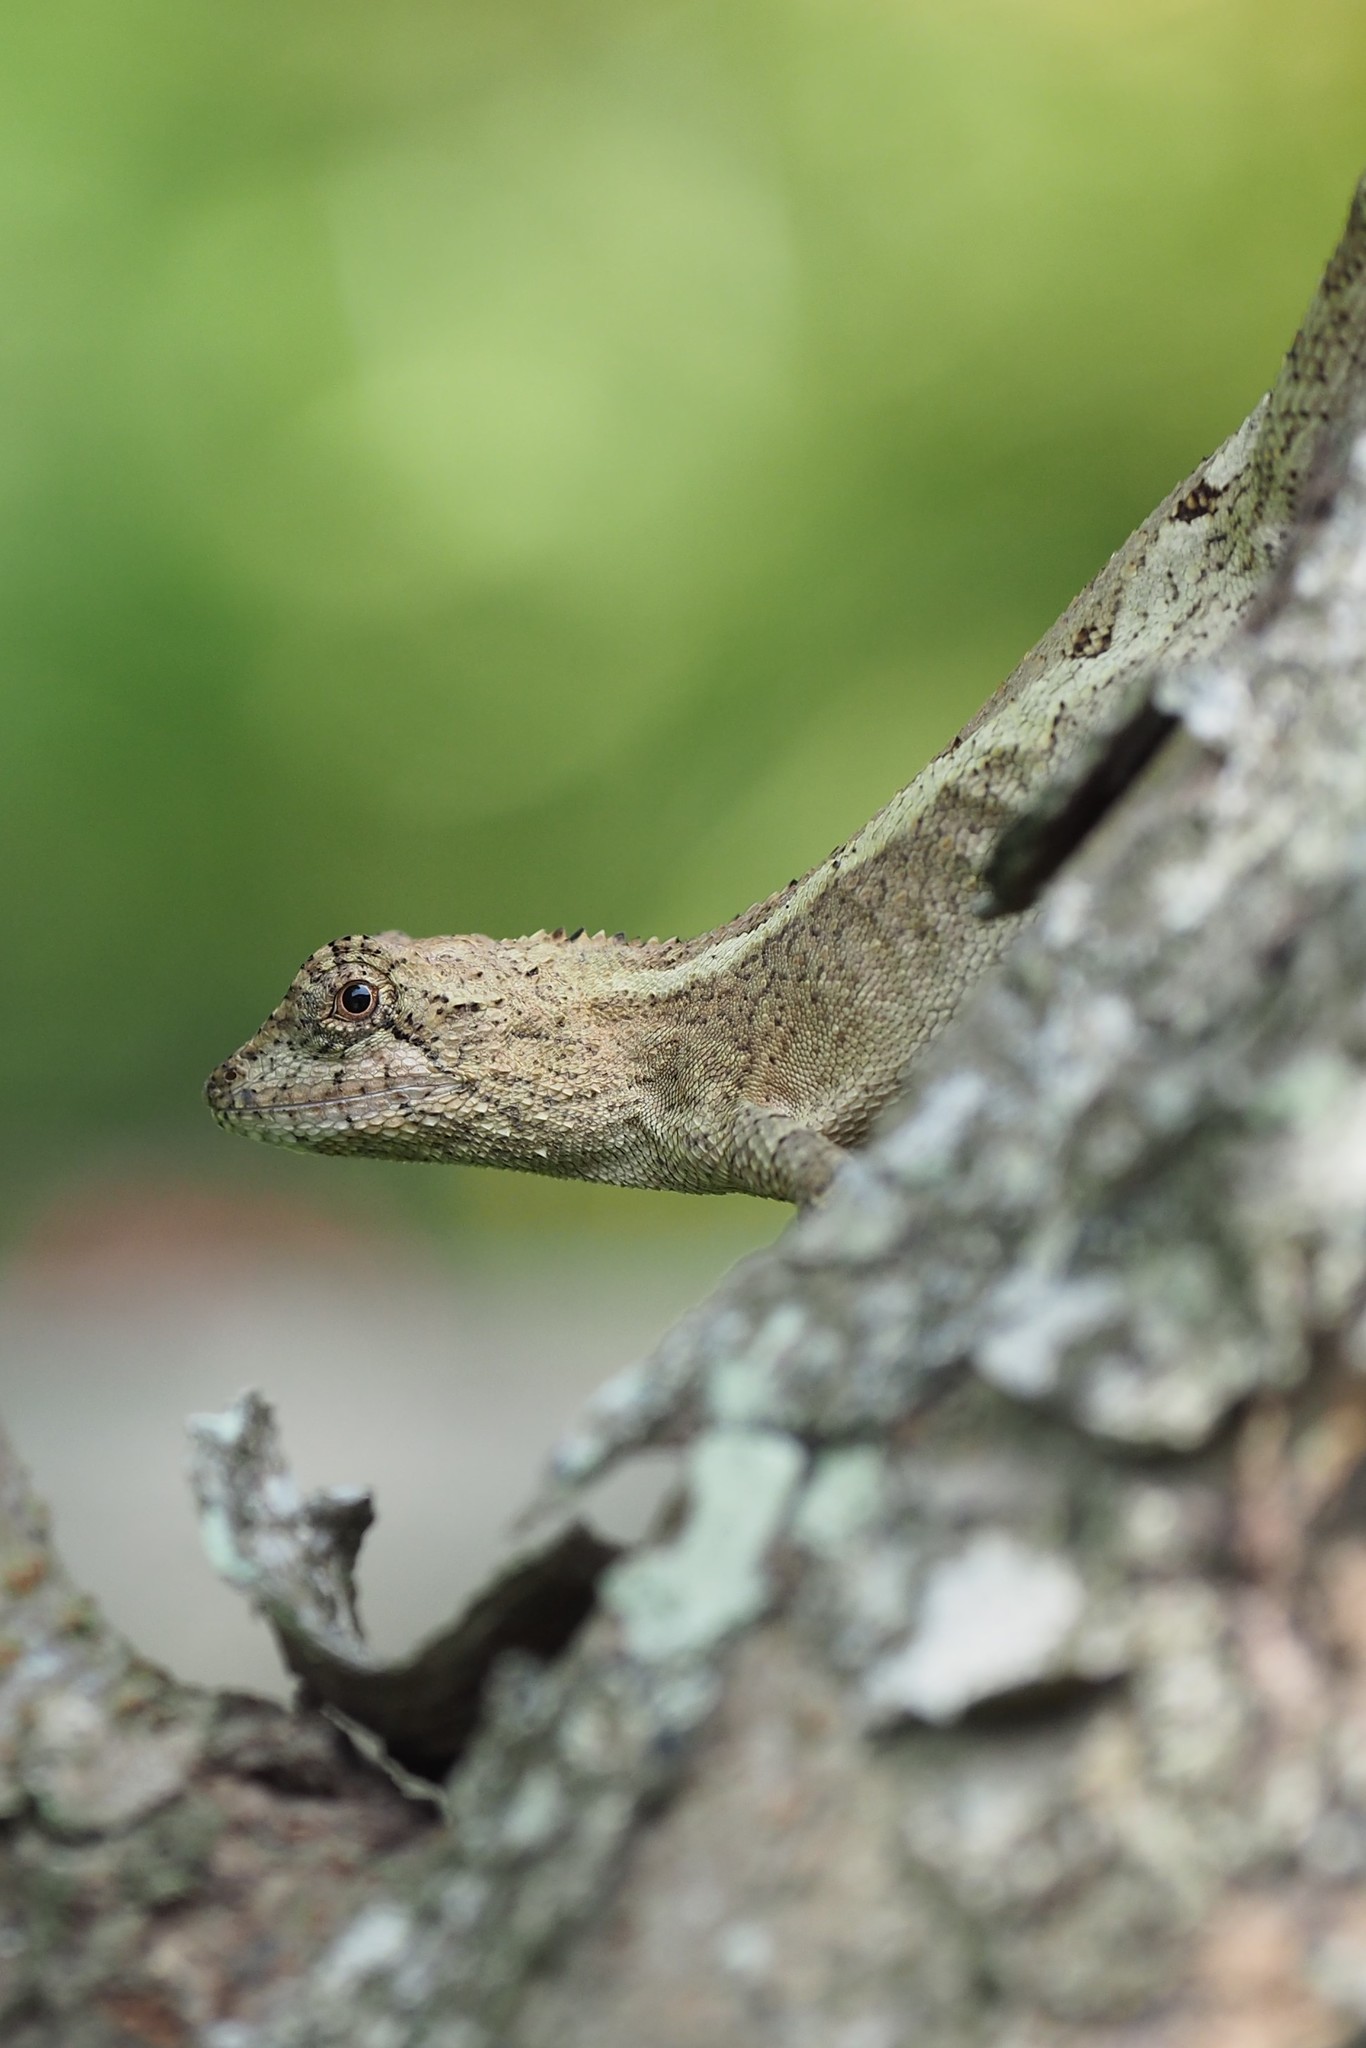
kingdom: Animalia
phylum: Chordata
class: Squamata
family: Agamidae
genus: Diploderma
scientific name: Diploderma swinhonis
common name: Taiwan japalure
